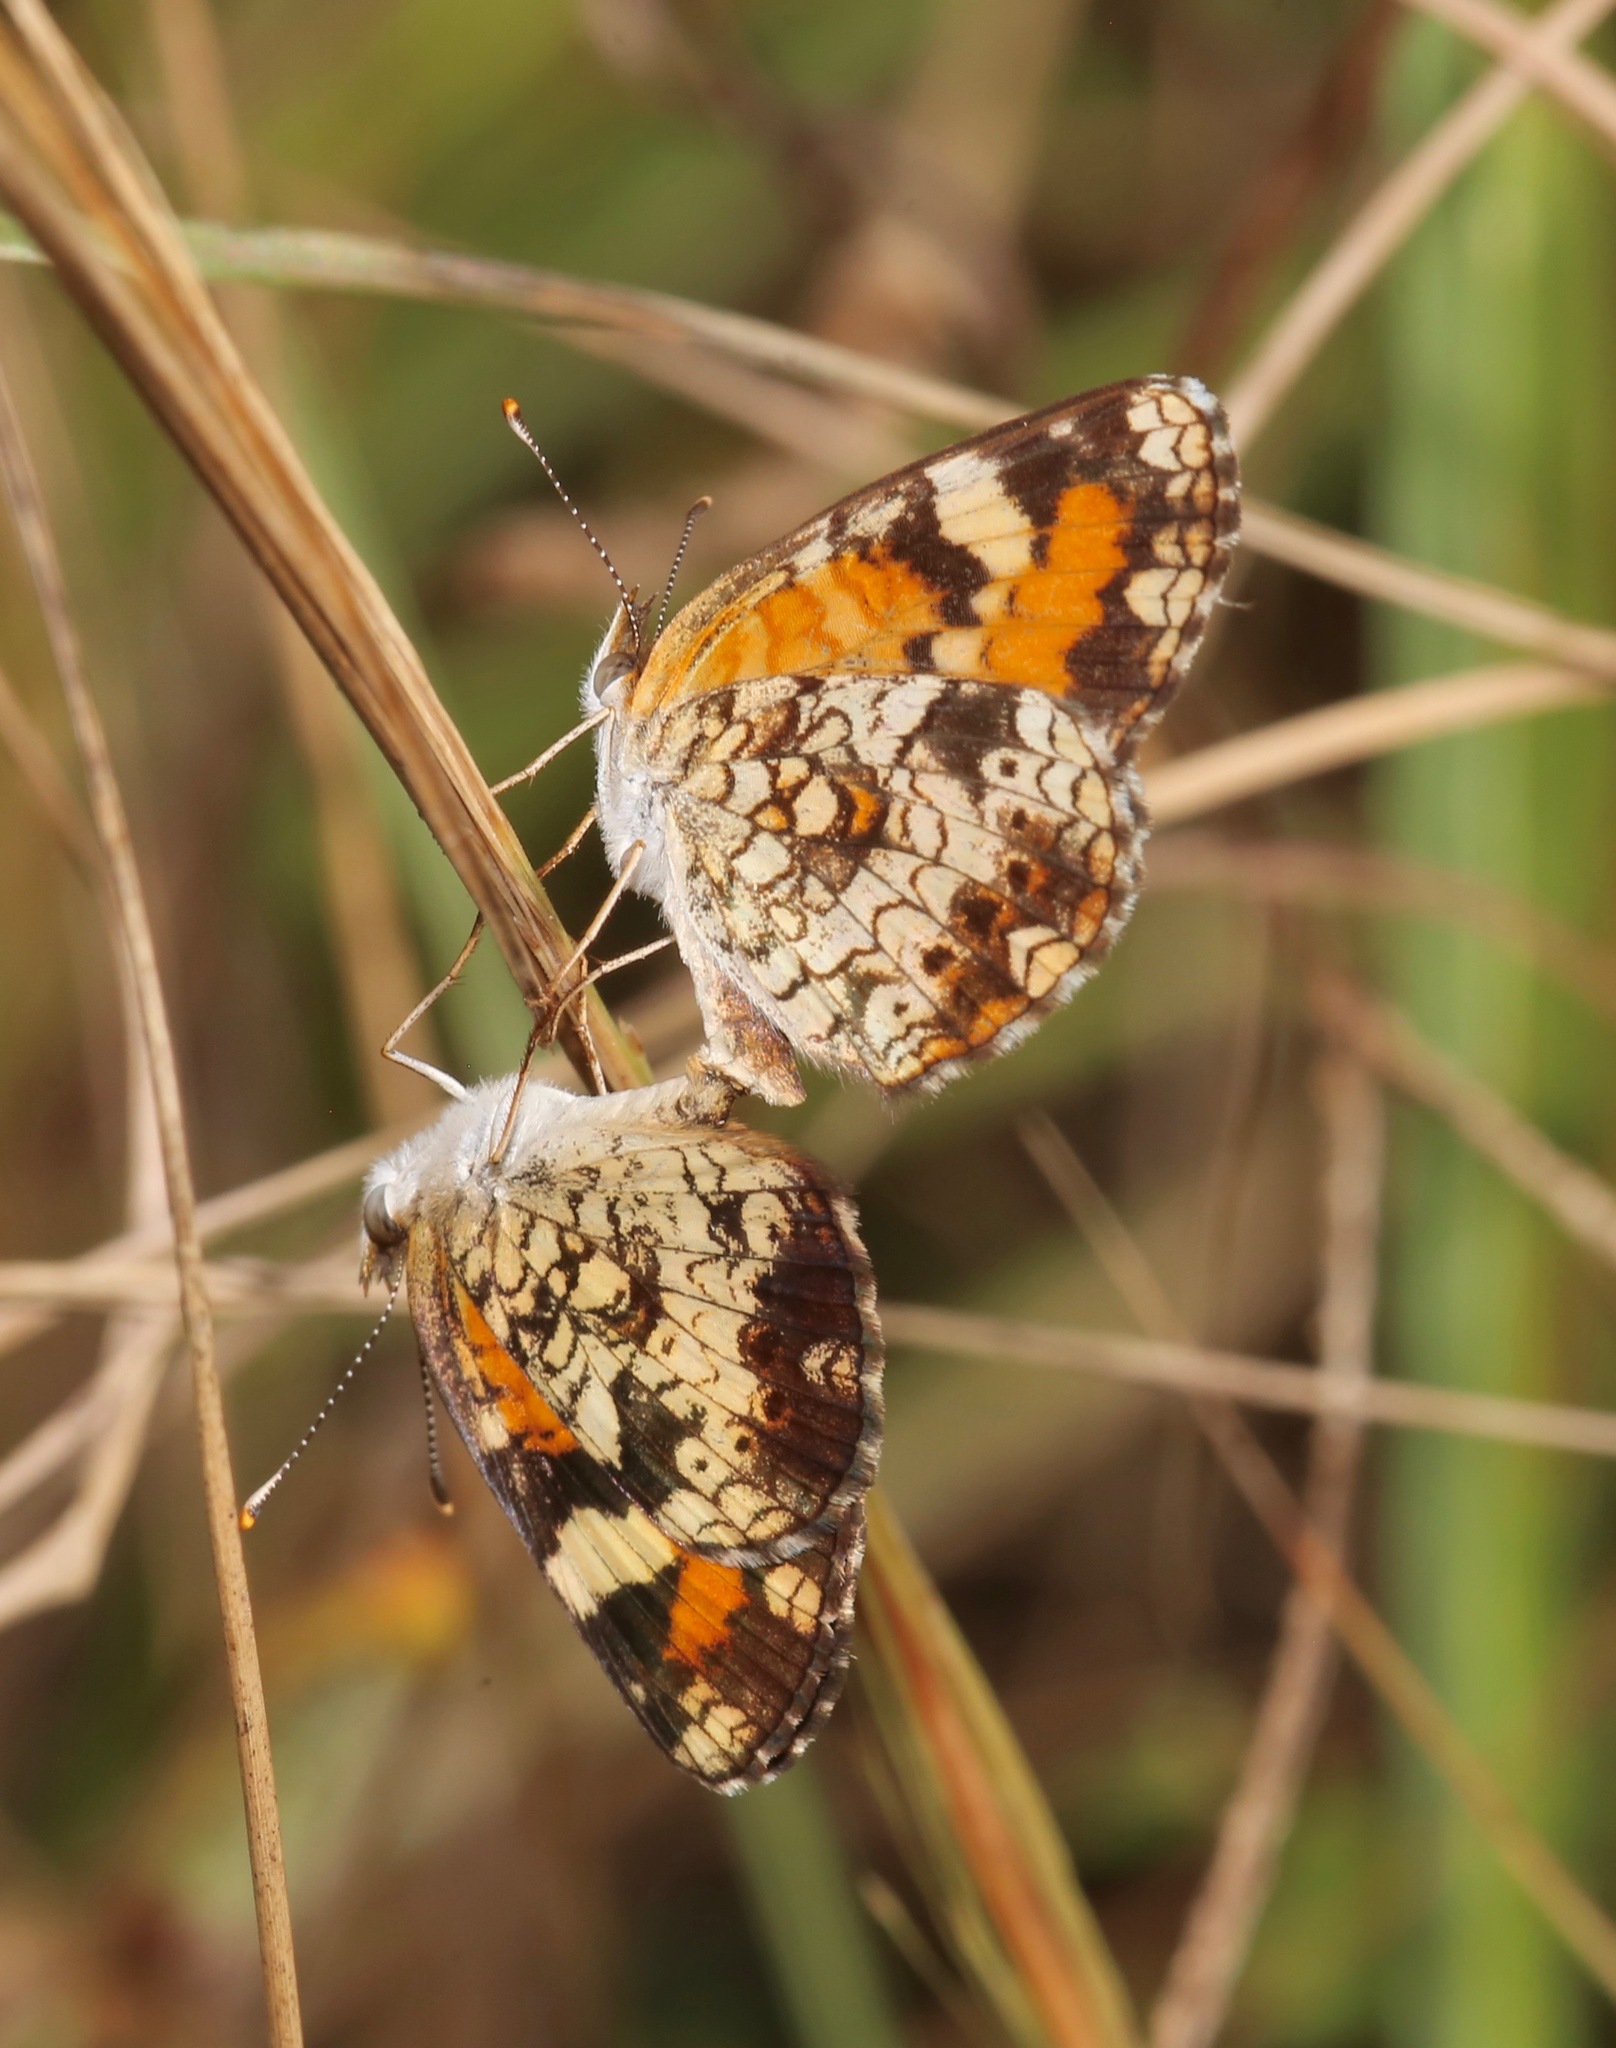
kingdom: Animalia
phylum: Arthropoda
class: Insecta
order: Lepidoptera
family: Nymphalidae
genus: Phyciodes
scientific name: Phyciodes phaon
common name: Phaon crescent
